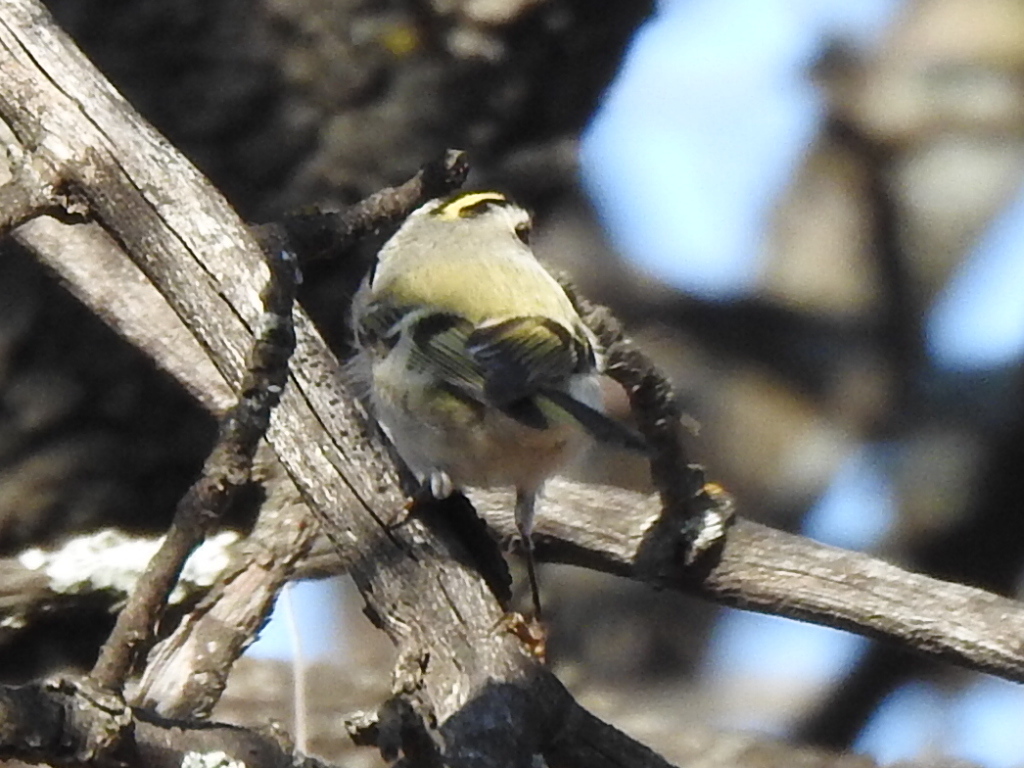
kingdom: Animalia
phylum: Chordata
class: Aves
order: Passeriformes
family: Regulidae
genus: Regulus
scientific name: Regulus satrapa
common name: Golden-crowned kinglet
